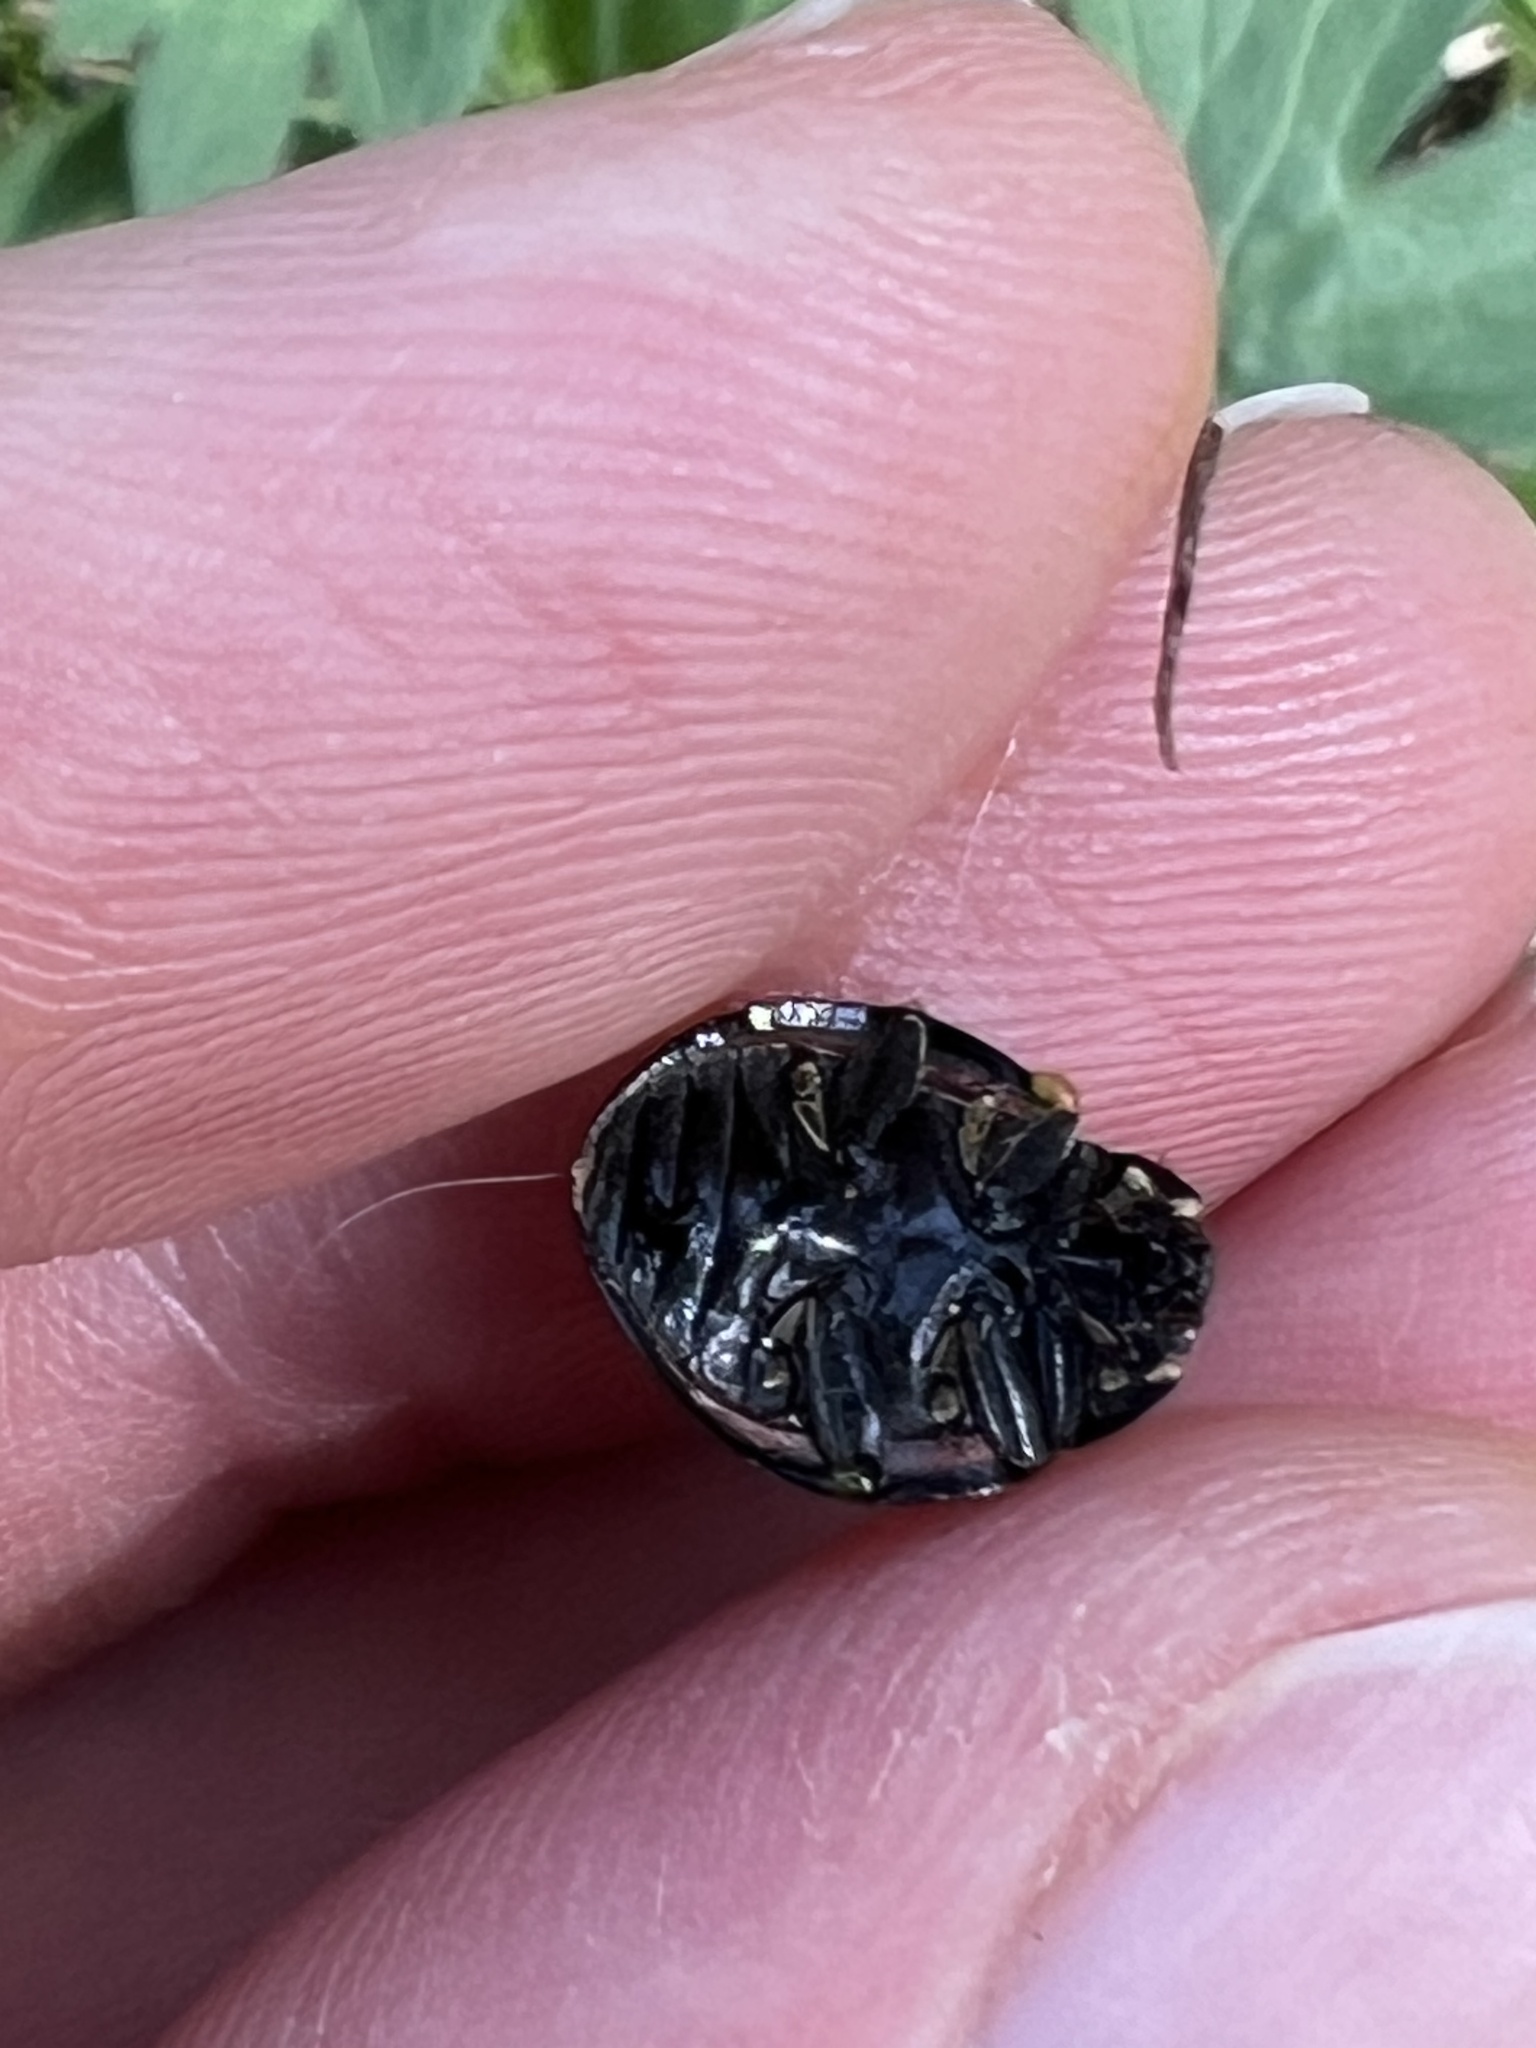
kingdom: Animalia
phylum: Arthropoda
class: Insecta
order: Coleoptera
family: Coccinellidae
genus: Anatis
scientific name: Anatis lecontei
